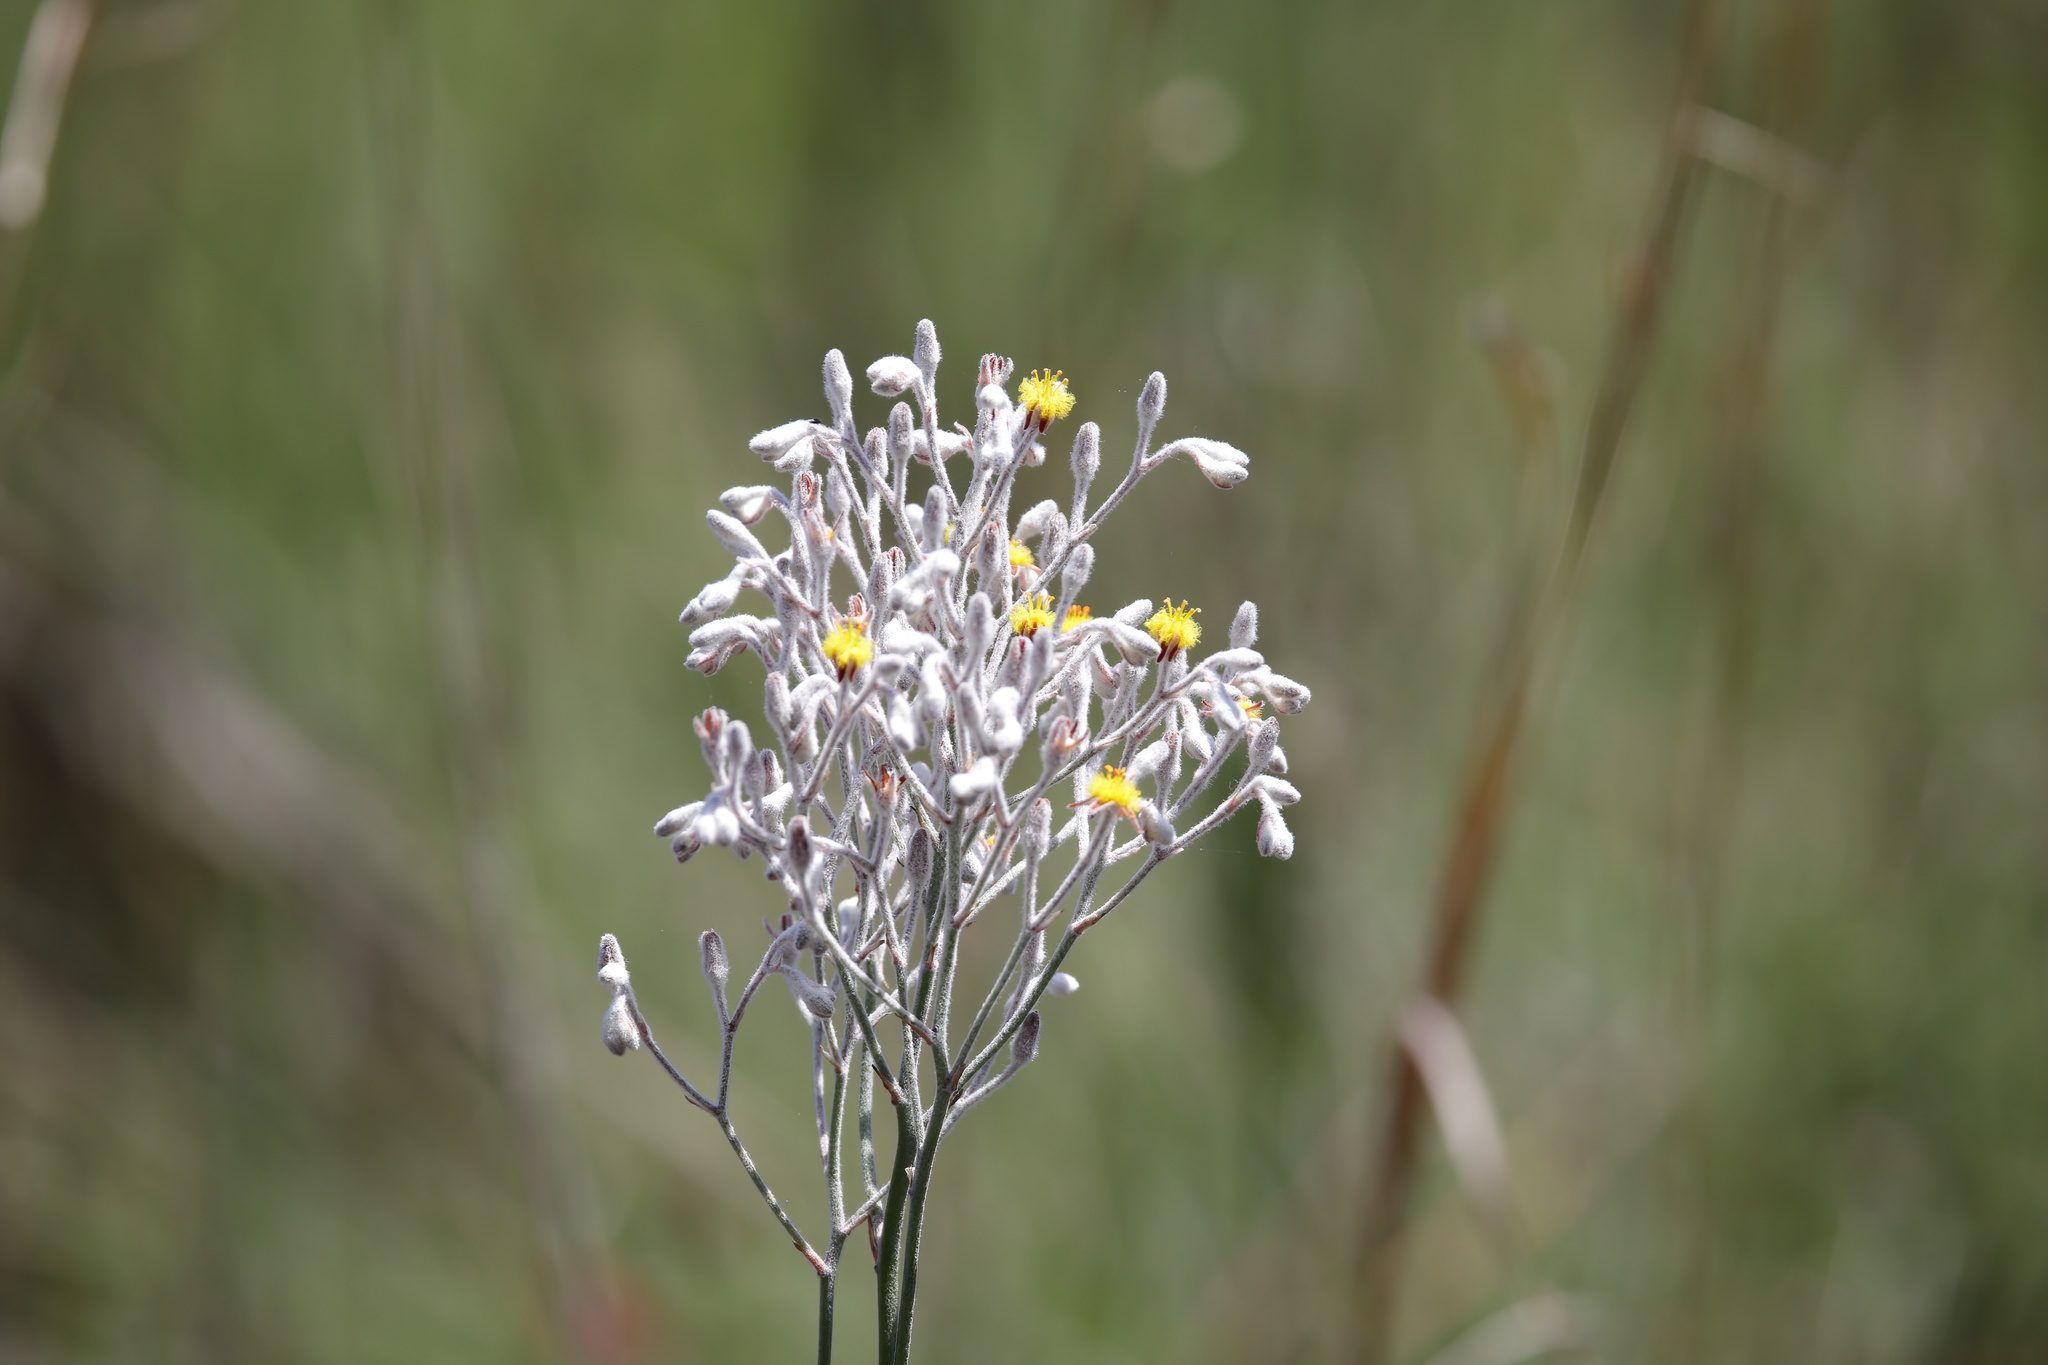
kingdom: Plantae
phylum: Tracheophyta
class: Liliopsida
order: Dioscoreales
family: Nartheciaceae
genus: Lophiola
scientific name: Lophiola aurea
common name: Golden-crest
